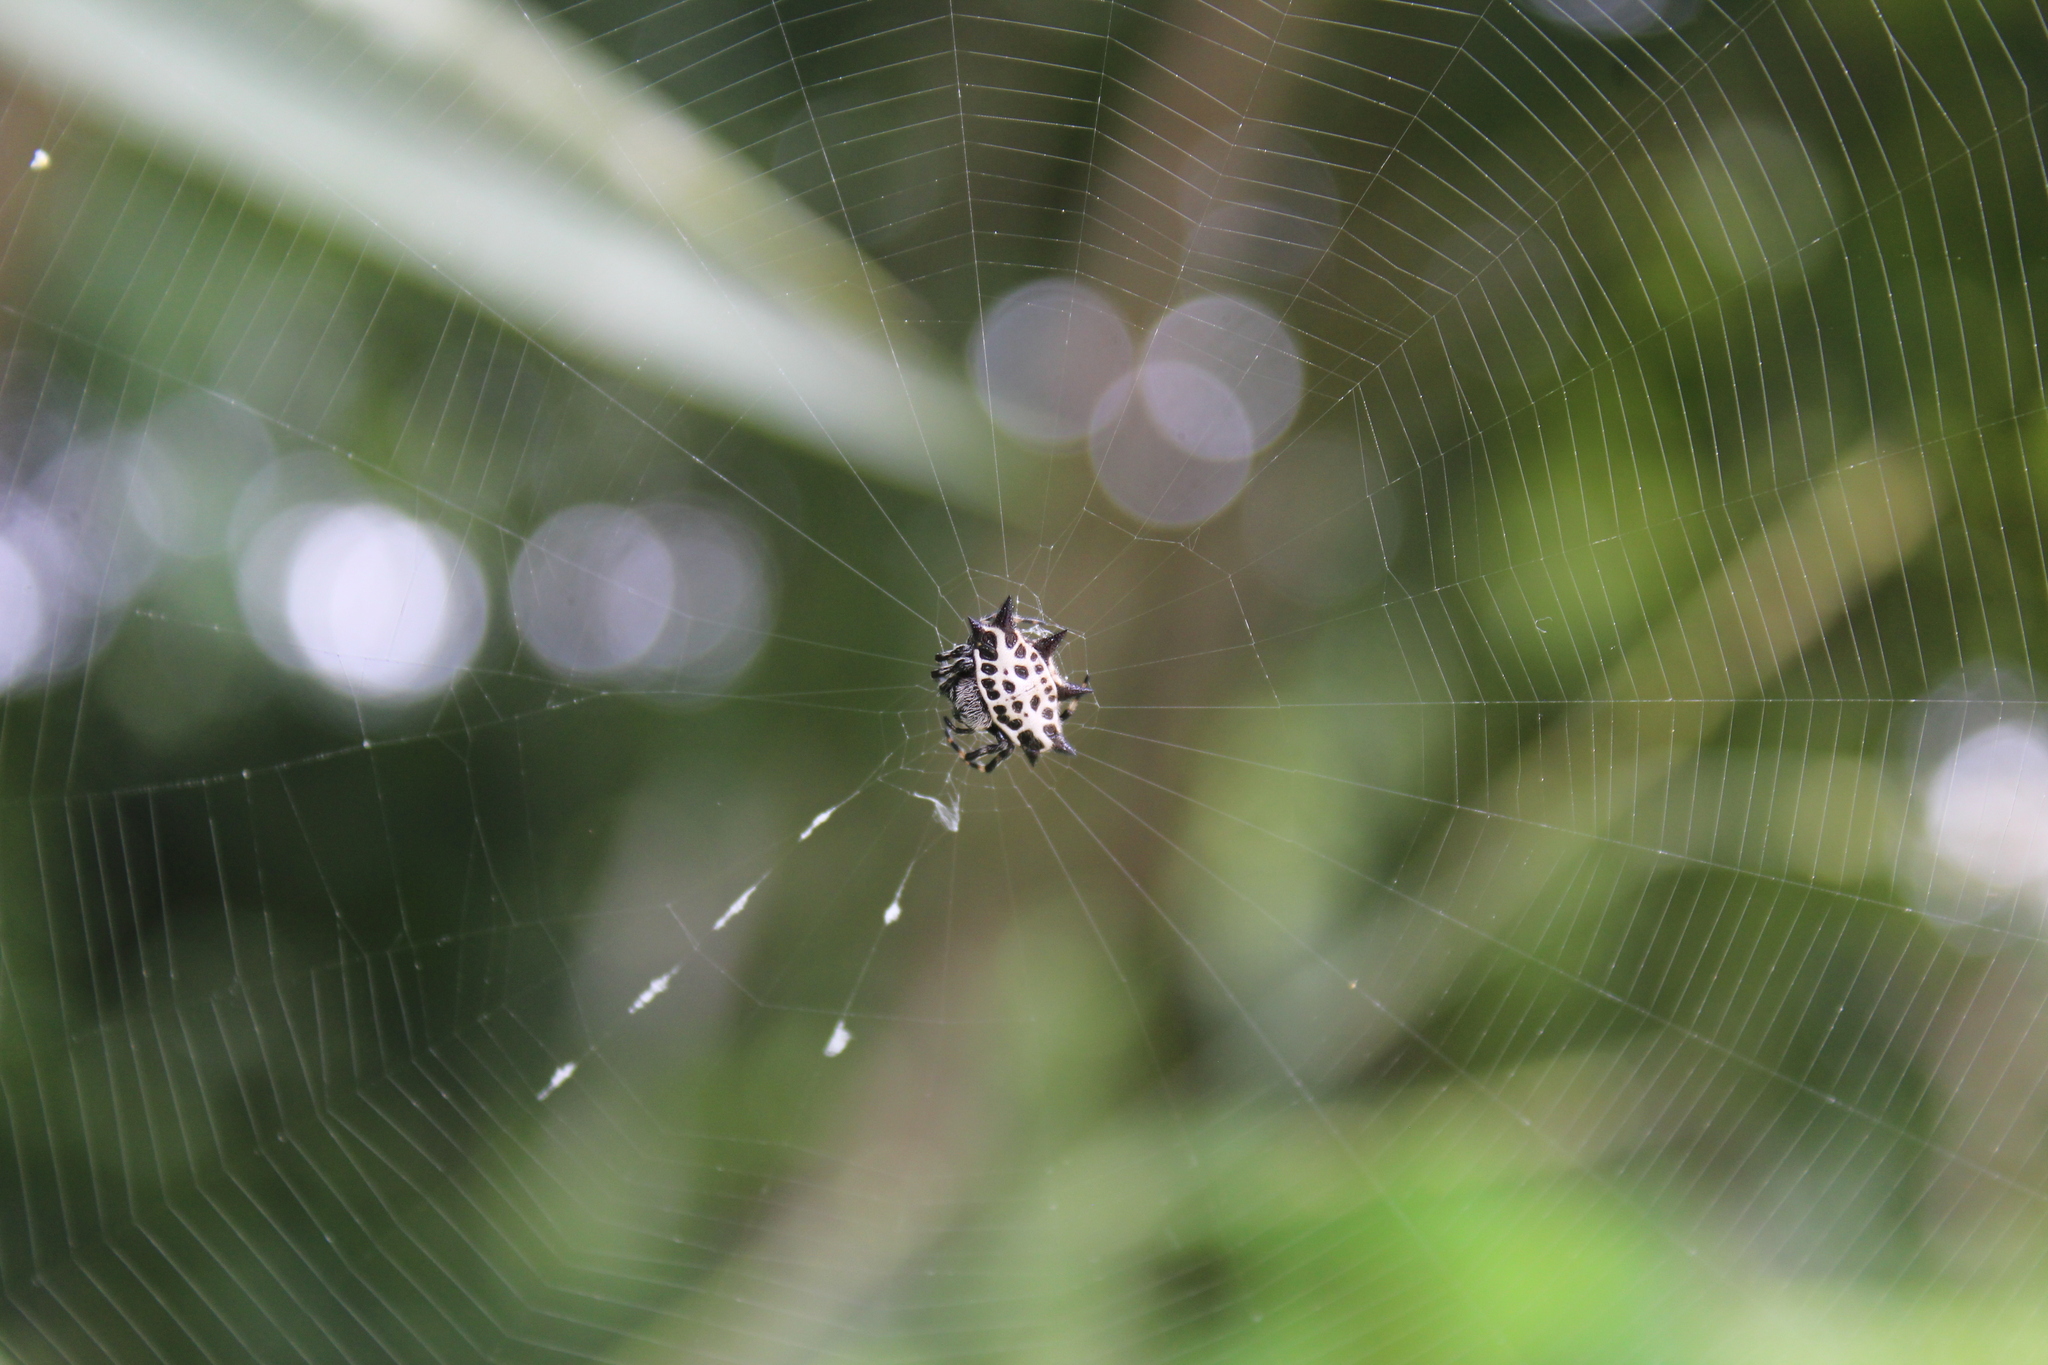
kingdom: Animalia
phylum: Arthropoda
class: Arachnida
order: Araneae
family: Araneidae
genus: Gasteracantha
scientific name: Gasteracantha cancriformis
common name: Orb weavers
